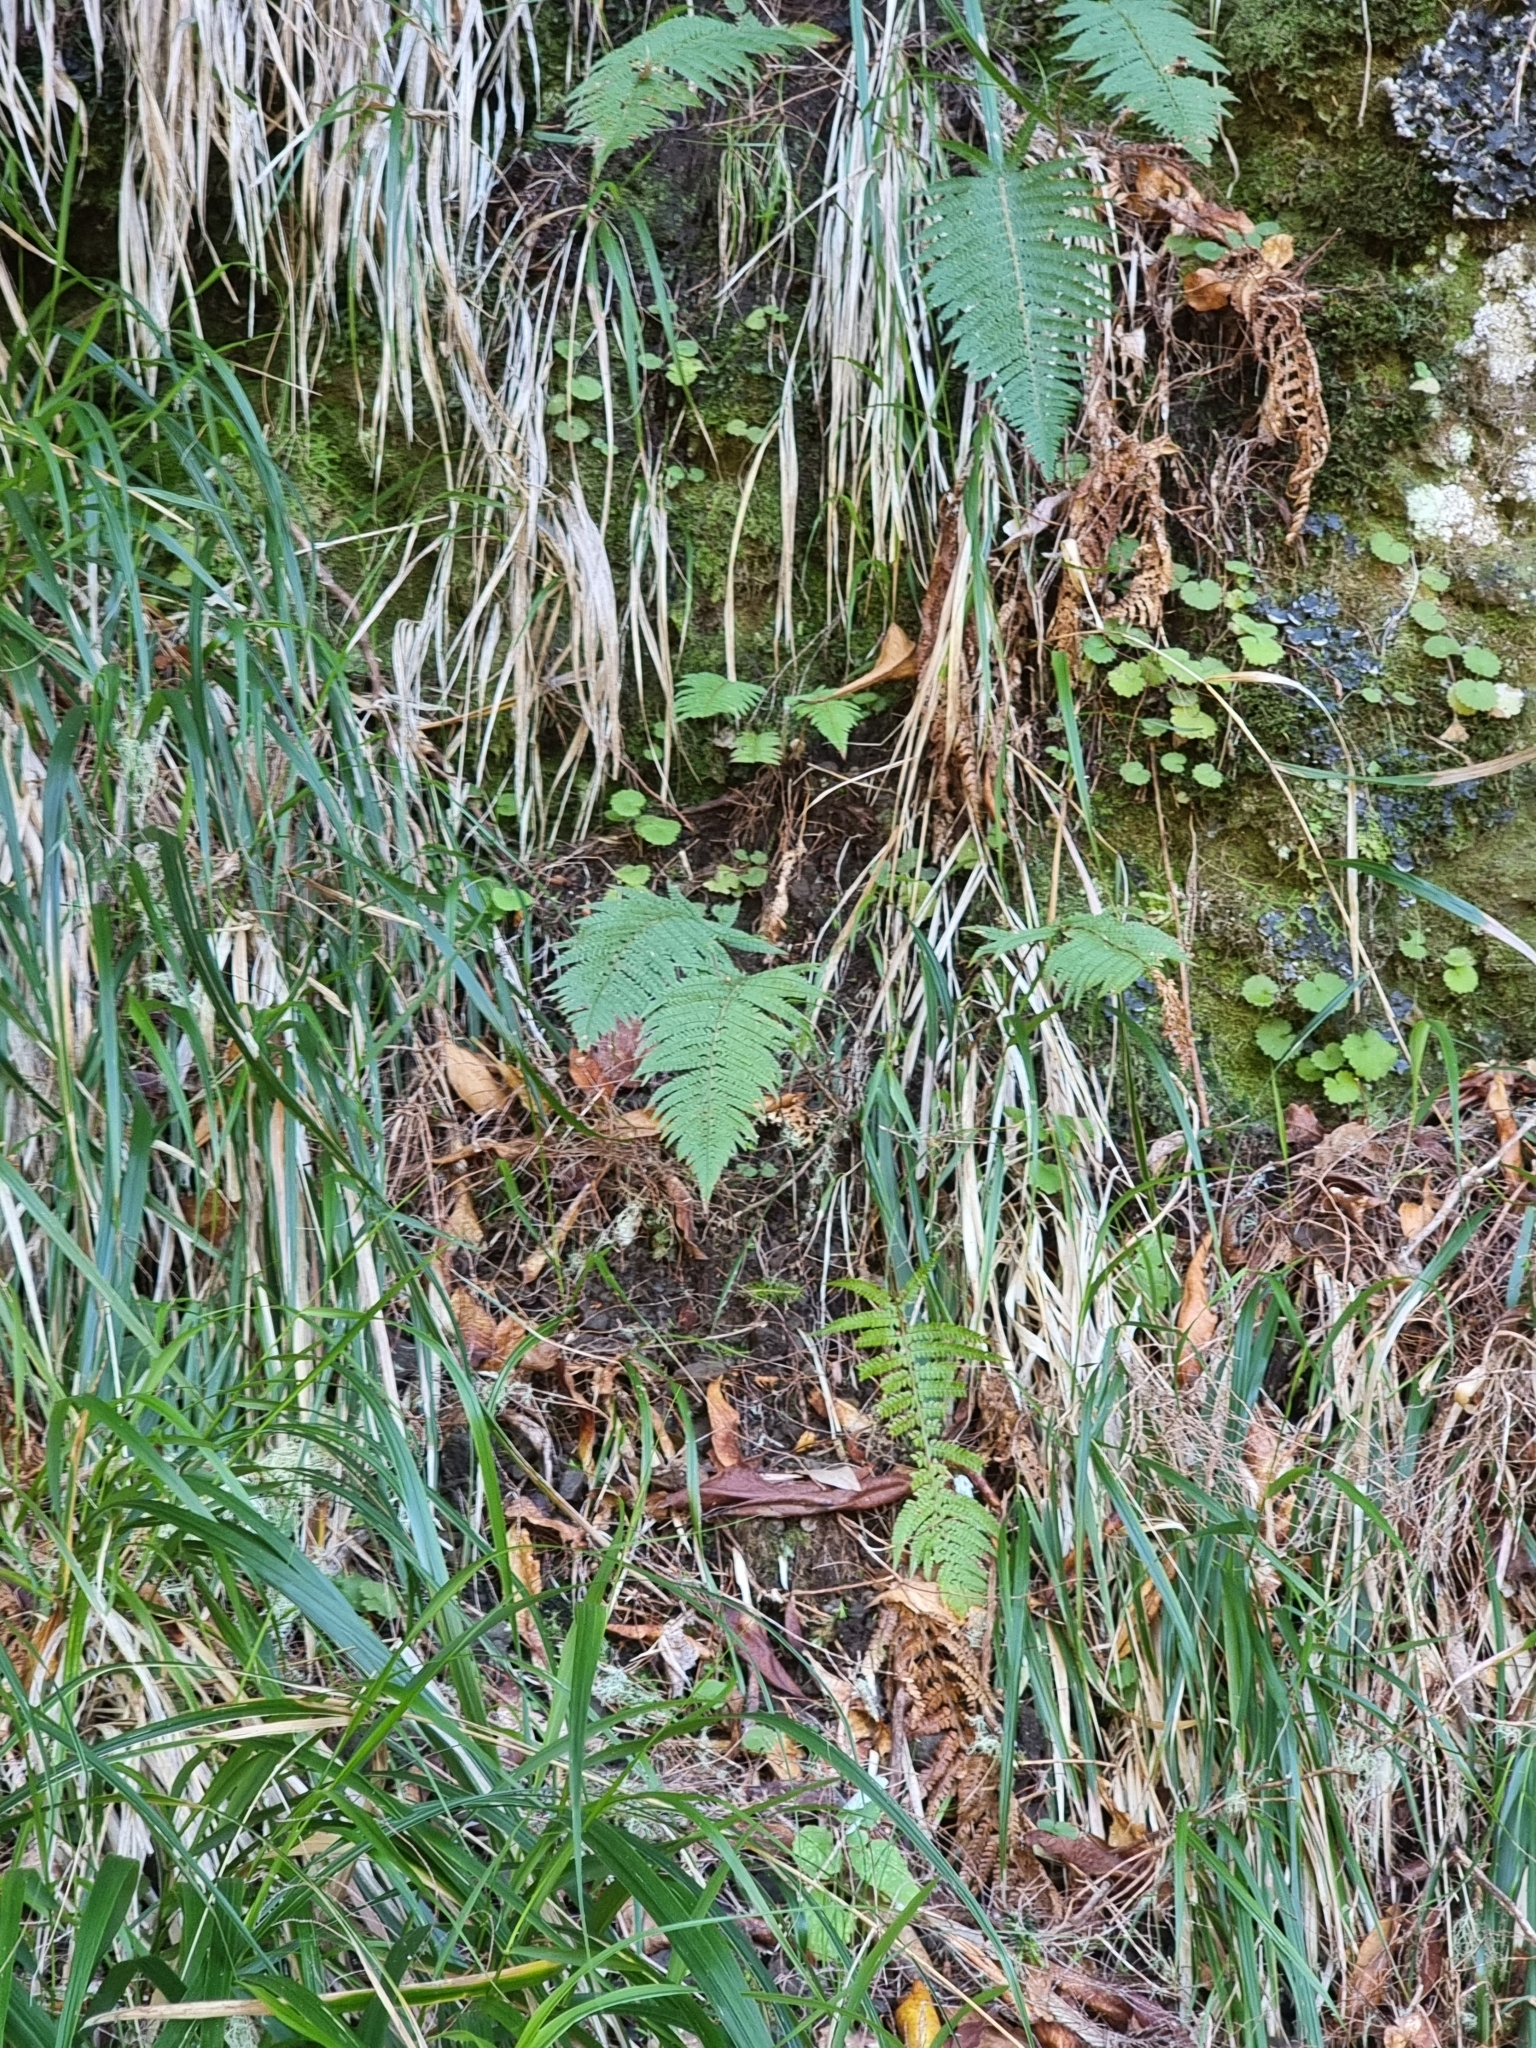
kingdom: Plantae
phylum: Tracheophyta
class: Polypodiopsida
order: Polypodiales
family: Dryopteridaceae
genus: Polystichum
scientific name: Polystichum setiferum
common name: Soft shield-fern
